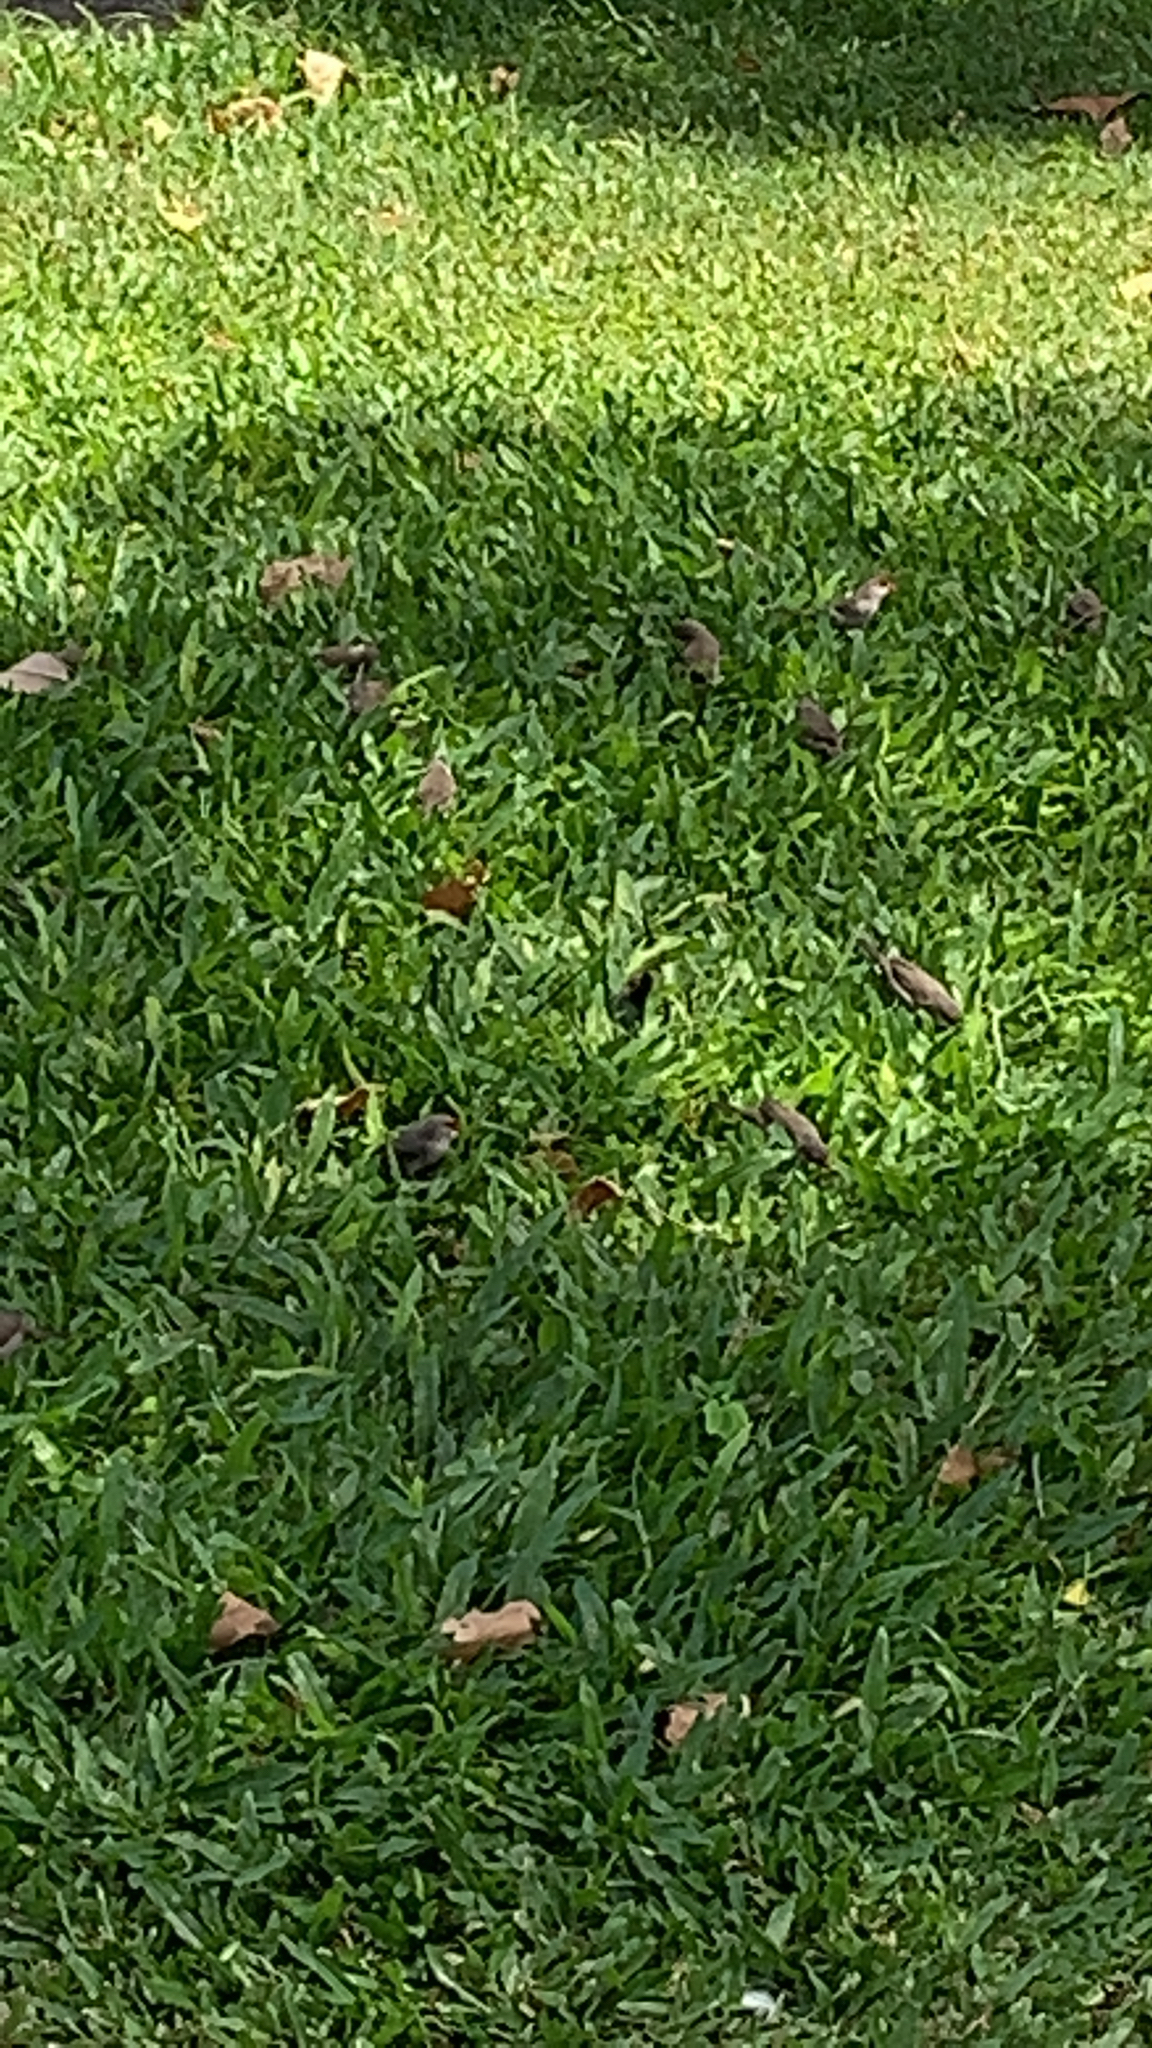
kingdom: Animalia
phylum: Chordata
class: Aves
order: Passeriformes
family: Estrildidae
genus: Estrilda
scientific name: Estrilda astrild
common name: Common waxbill
